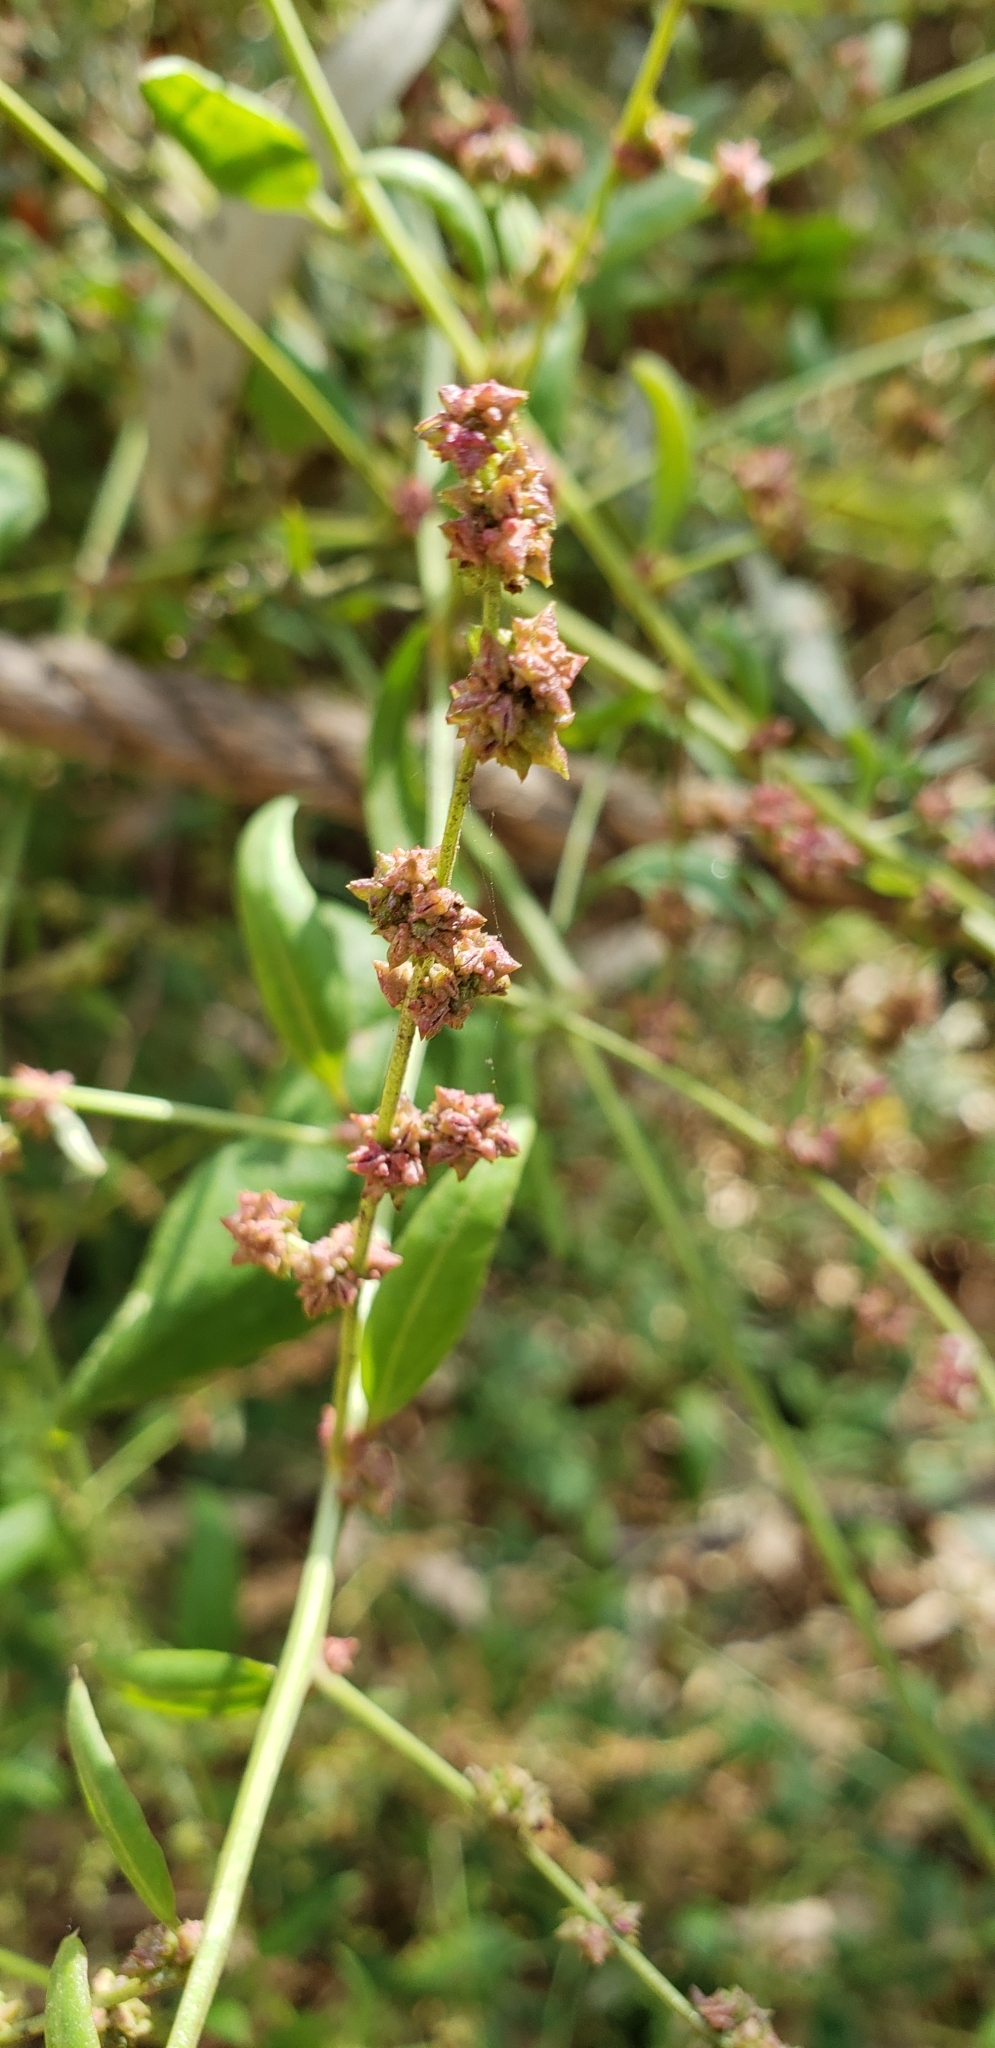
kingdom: Plantae
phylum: Tracheophyta
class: Magnoliopsida
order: Caryophyllales
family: Amaranthaceae
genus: Atriplex
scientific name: Atriplex prostrata
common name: Spear-leaved orache
